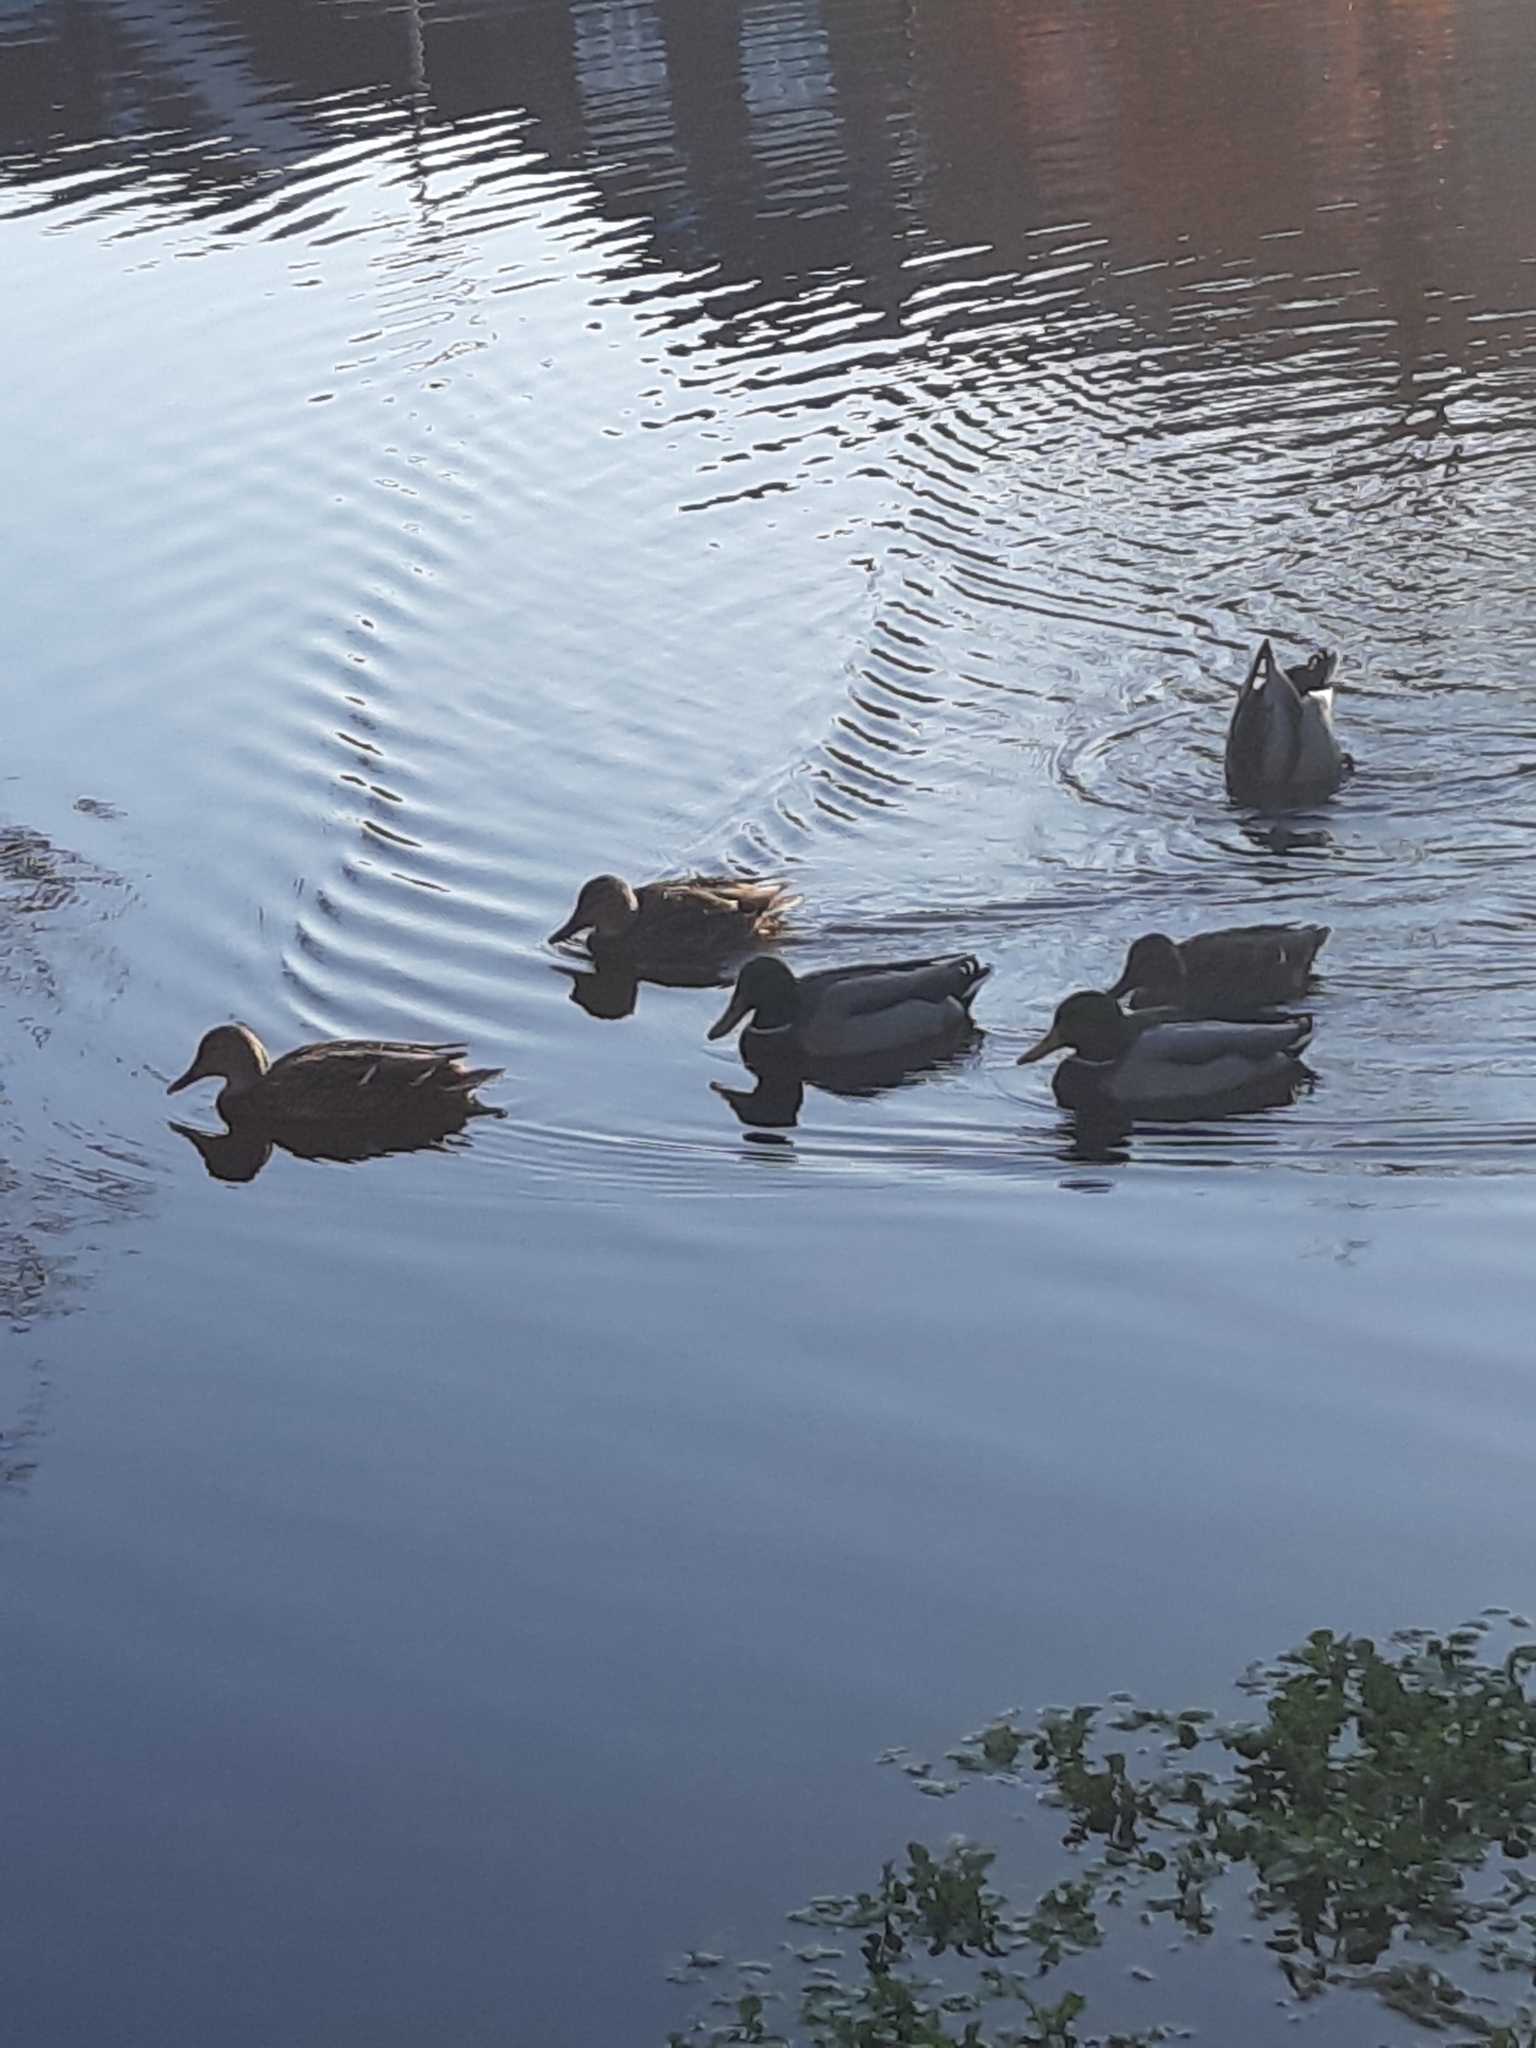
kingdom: Animalia
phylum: Chordata
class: Aves
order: Anseriformes
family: Anatidae
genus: Anas
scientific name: Anas platyrhynchos
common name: Mallard
